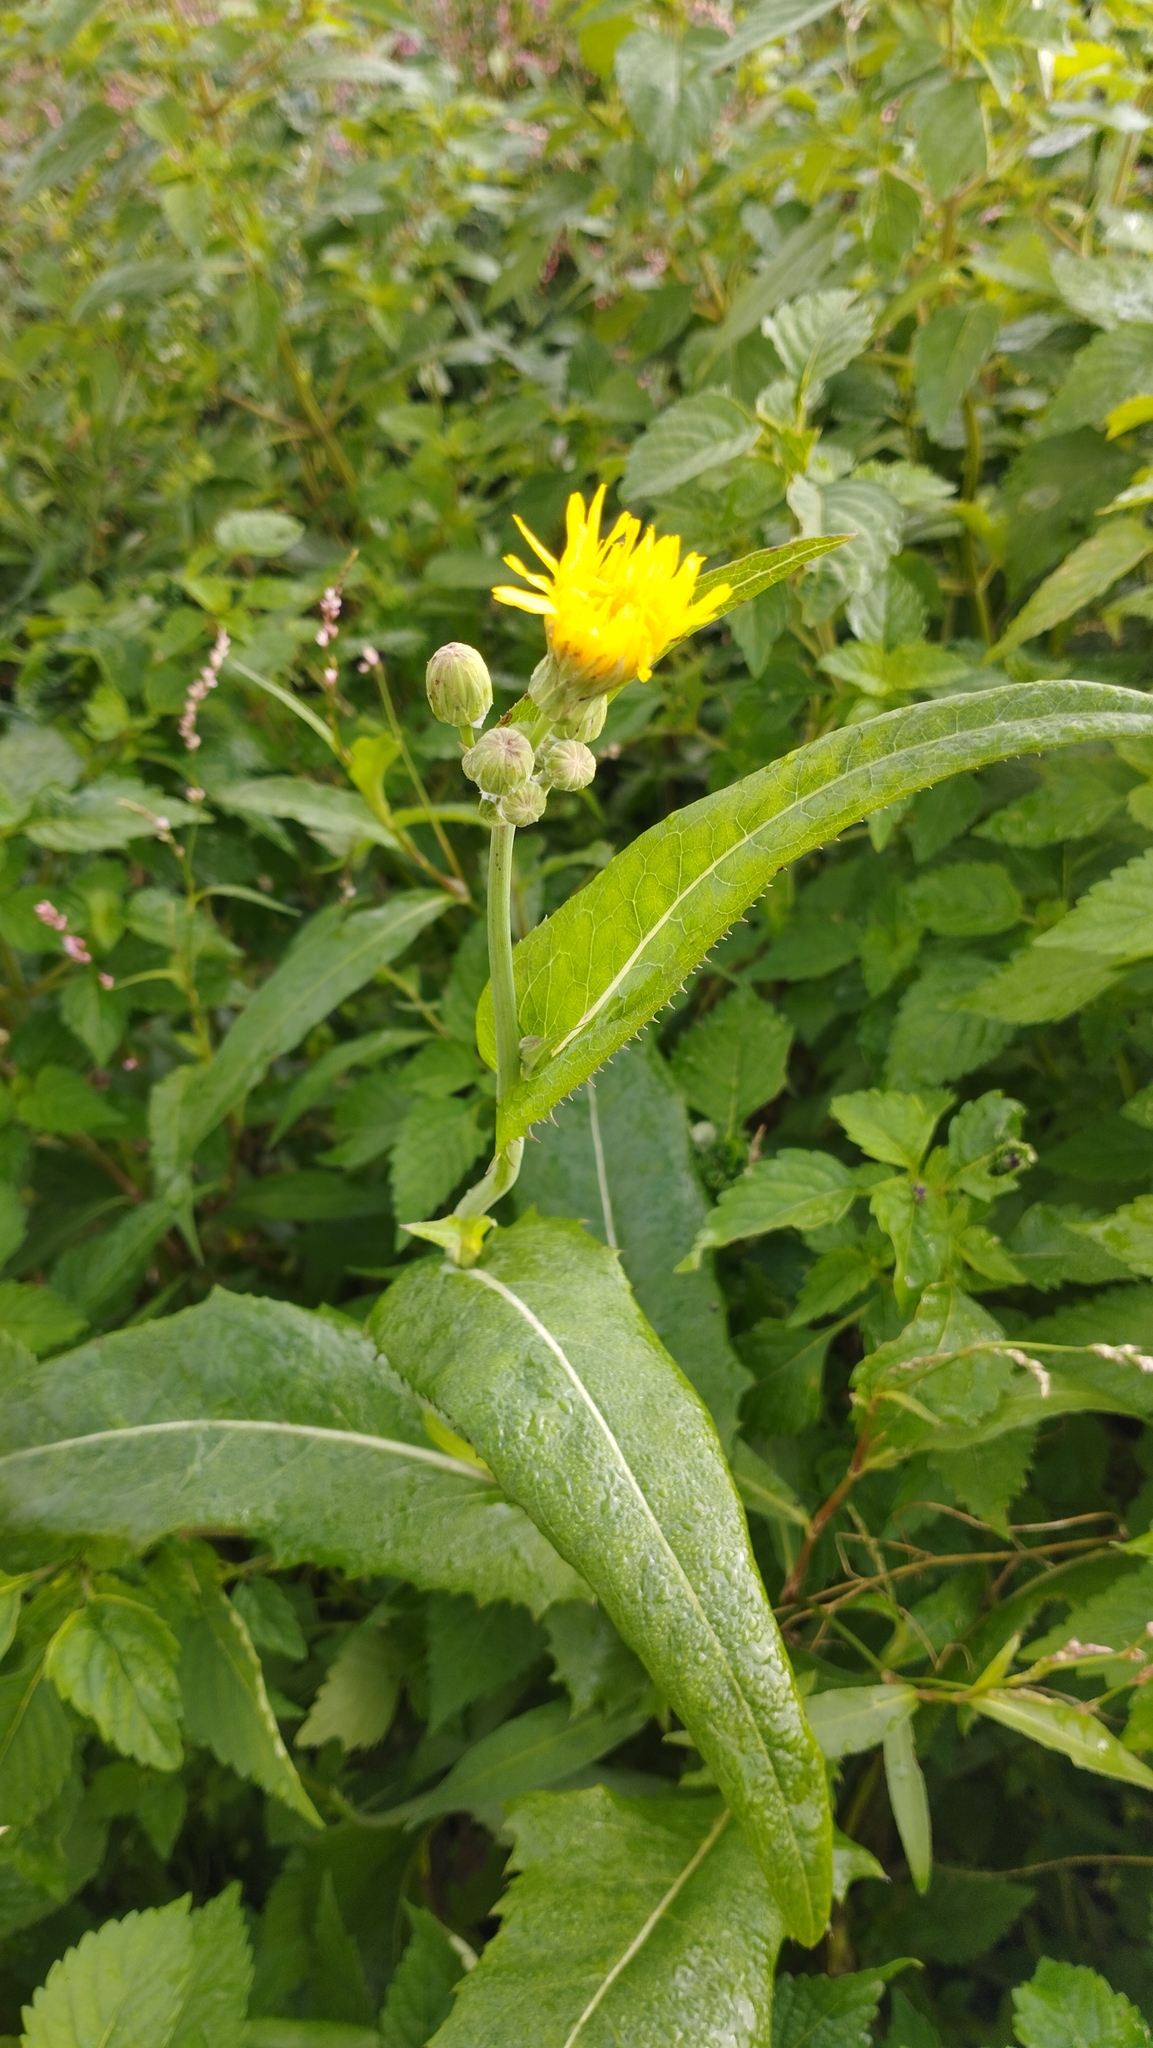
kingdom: Plantae
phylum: Tracheophyta
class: Magnoliopsida
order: Asterales
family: Asteraceae
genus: Sonchus
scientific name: Sonchus arvensis
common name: Perennial sow-thistle
